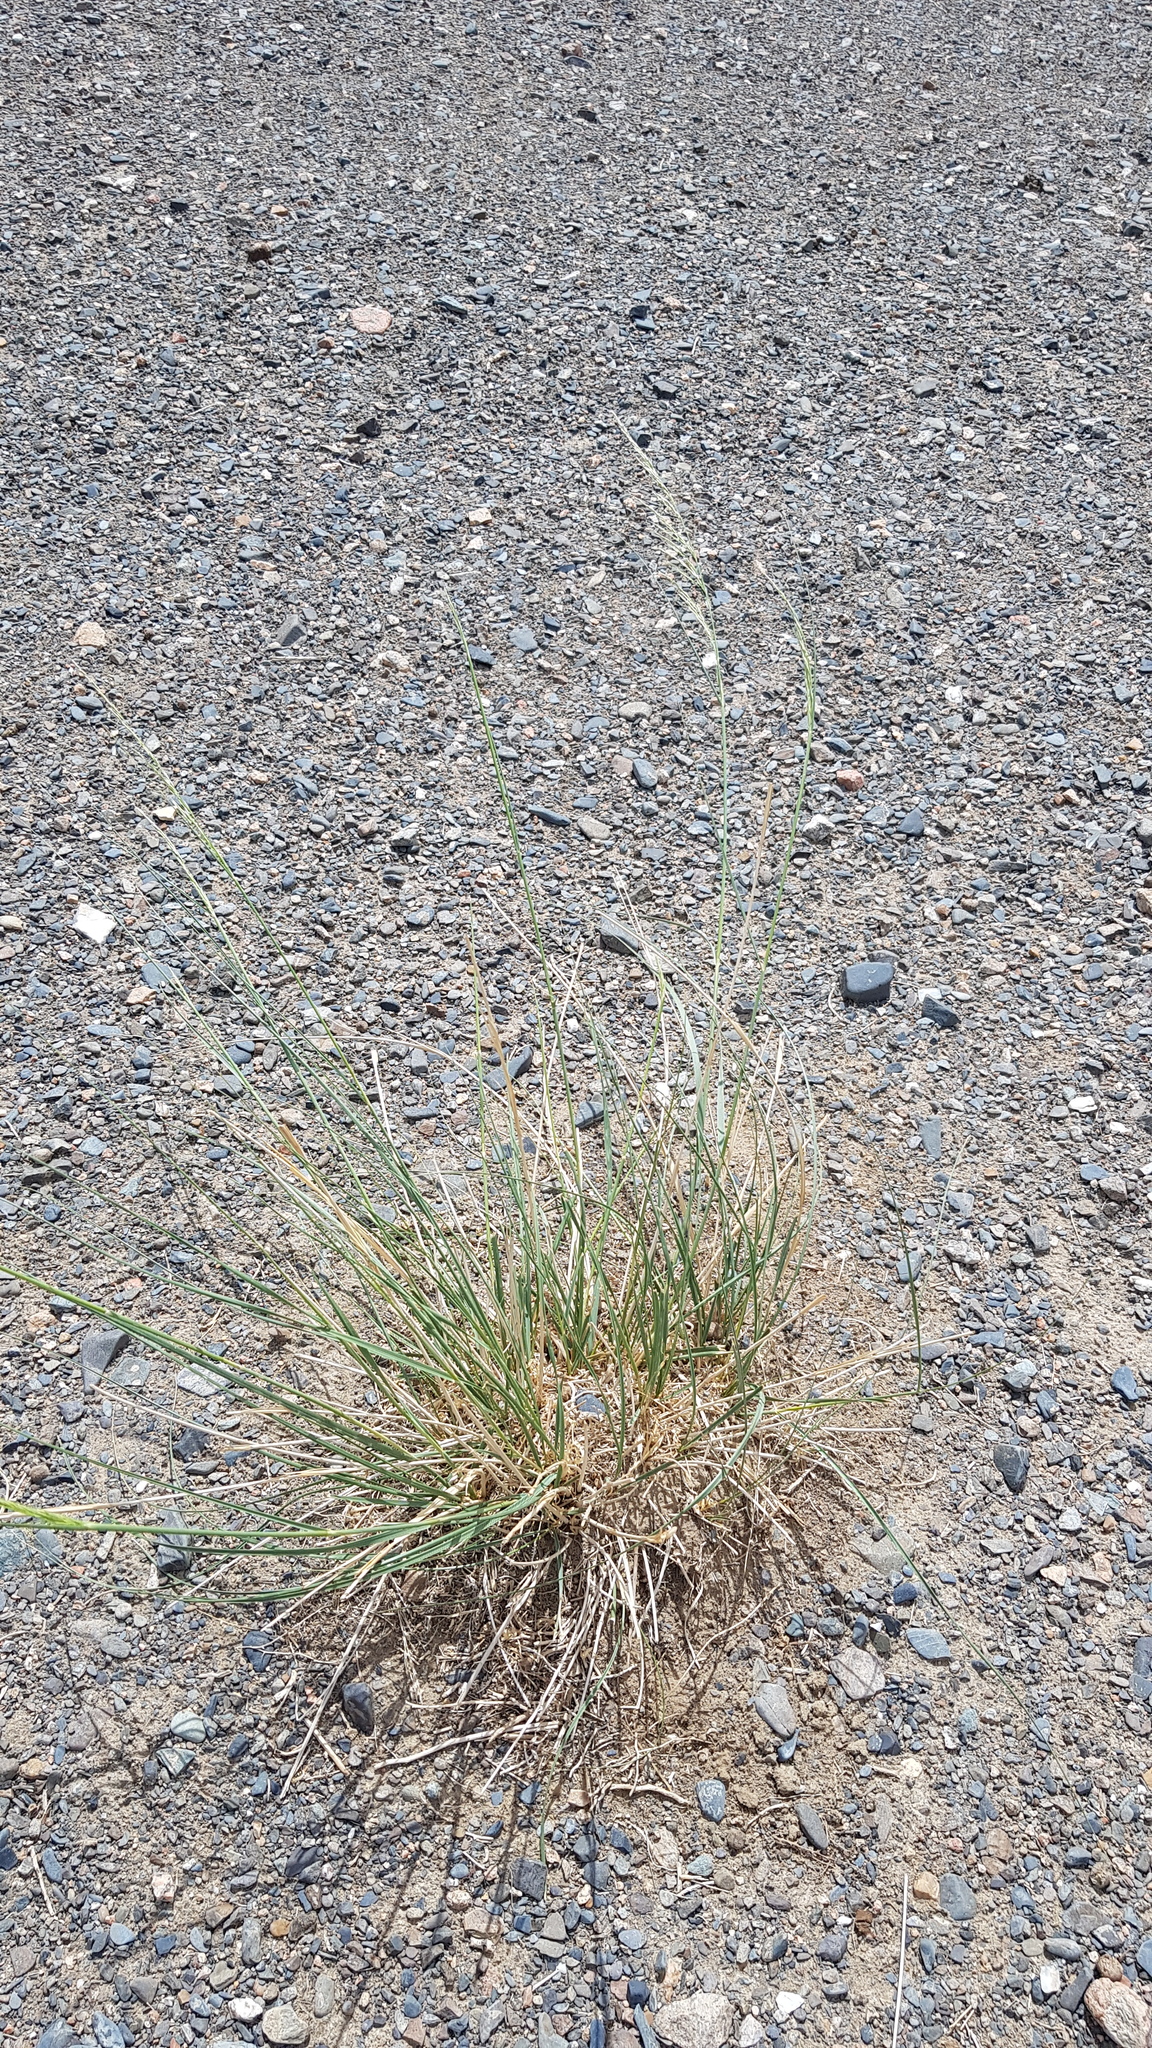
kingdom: Plantae
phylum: Tracheophyta
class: Liliopsida
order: Poales
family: Poaceae
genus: Neotrinia
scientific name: Neotrinia splendens
